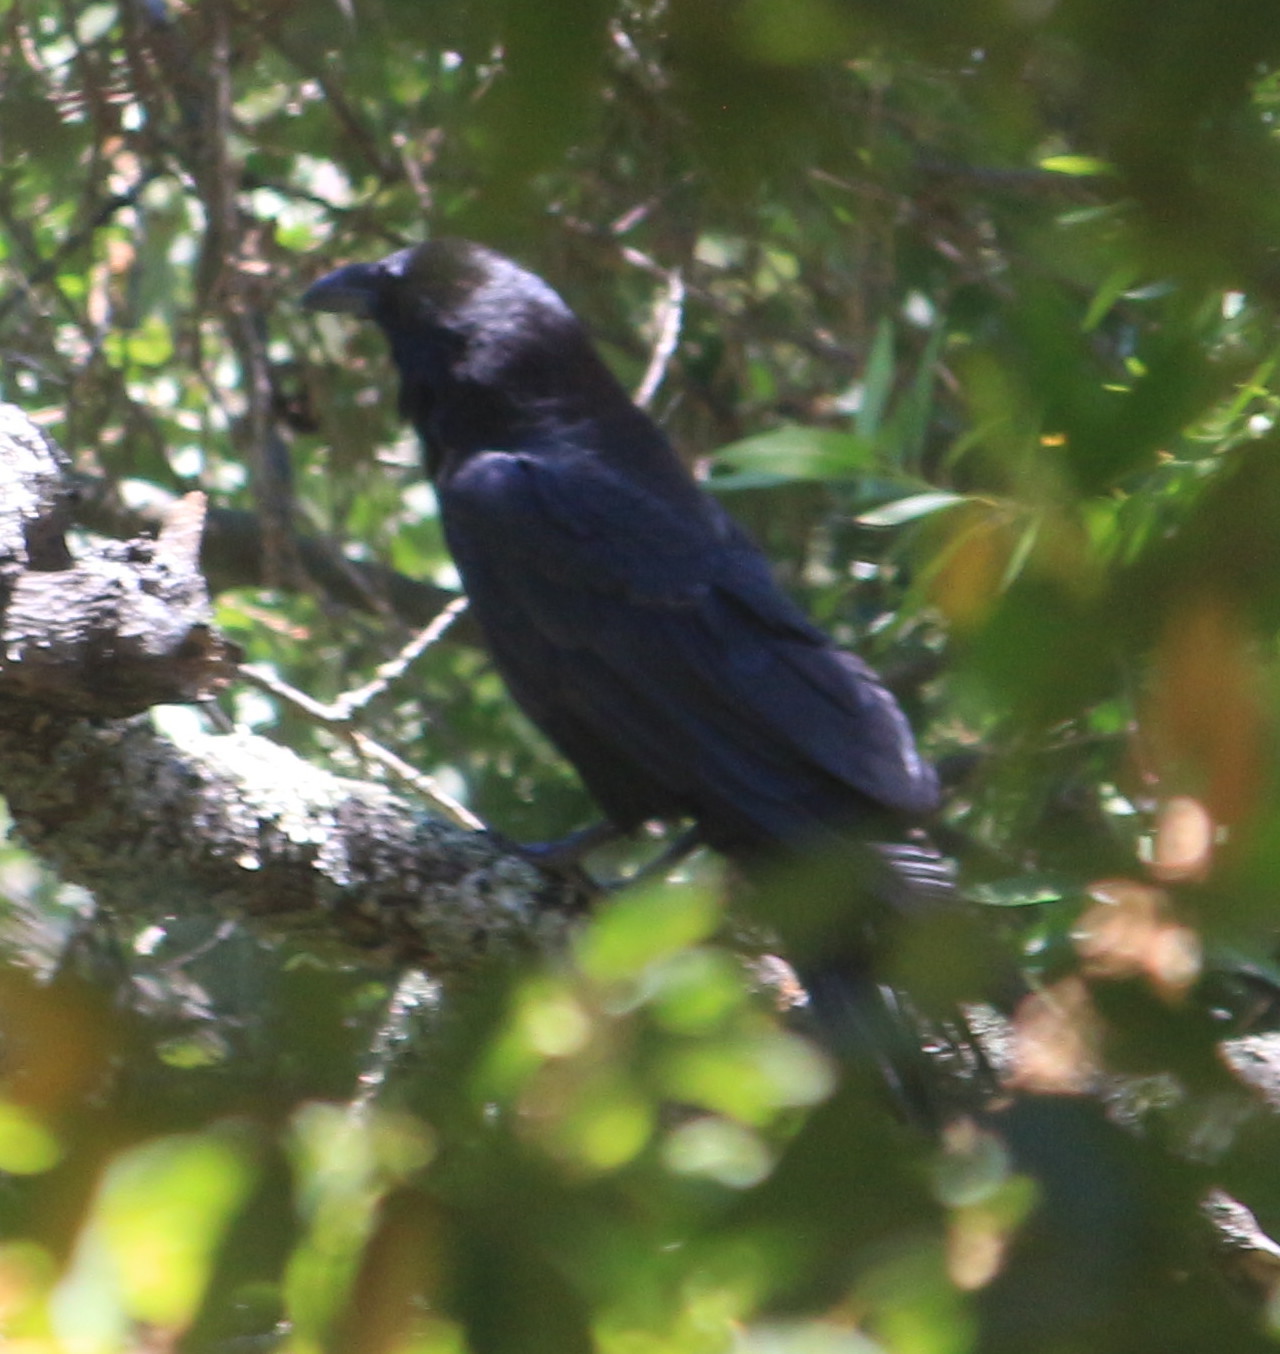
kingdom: Animalia
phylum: Chordata
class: Aves
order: Passeriformes
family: Corvidae
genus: Corvus
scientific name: Corvus corax
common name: Common raven
